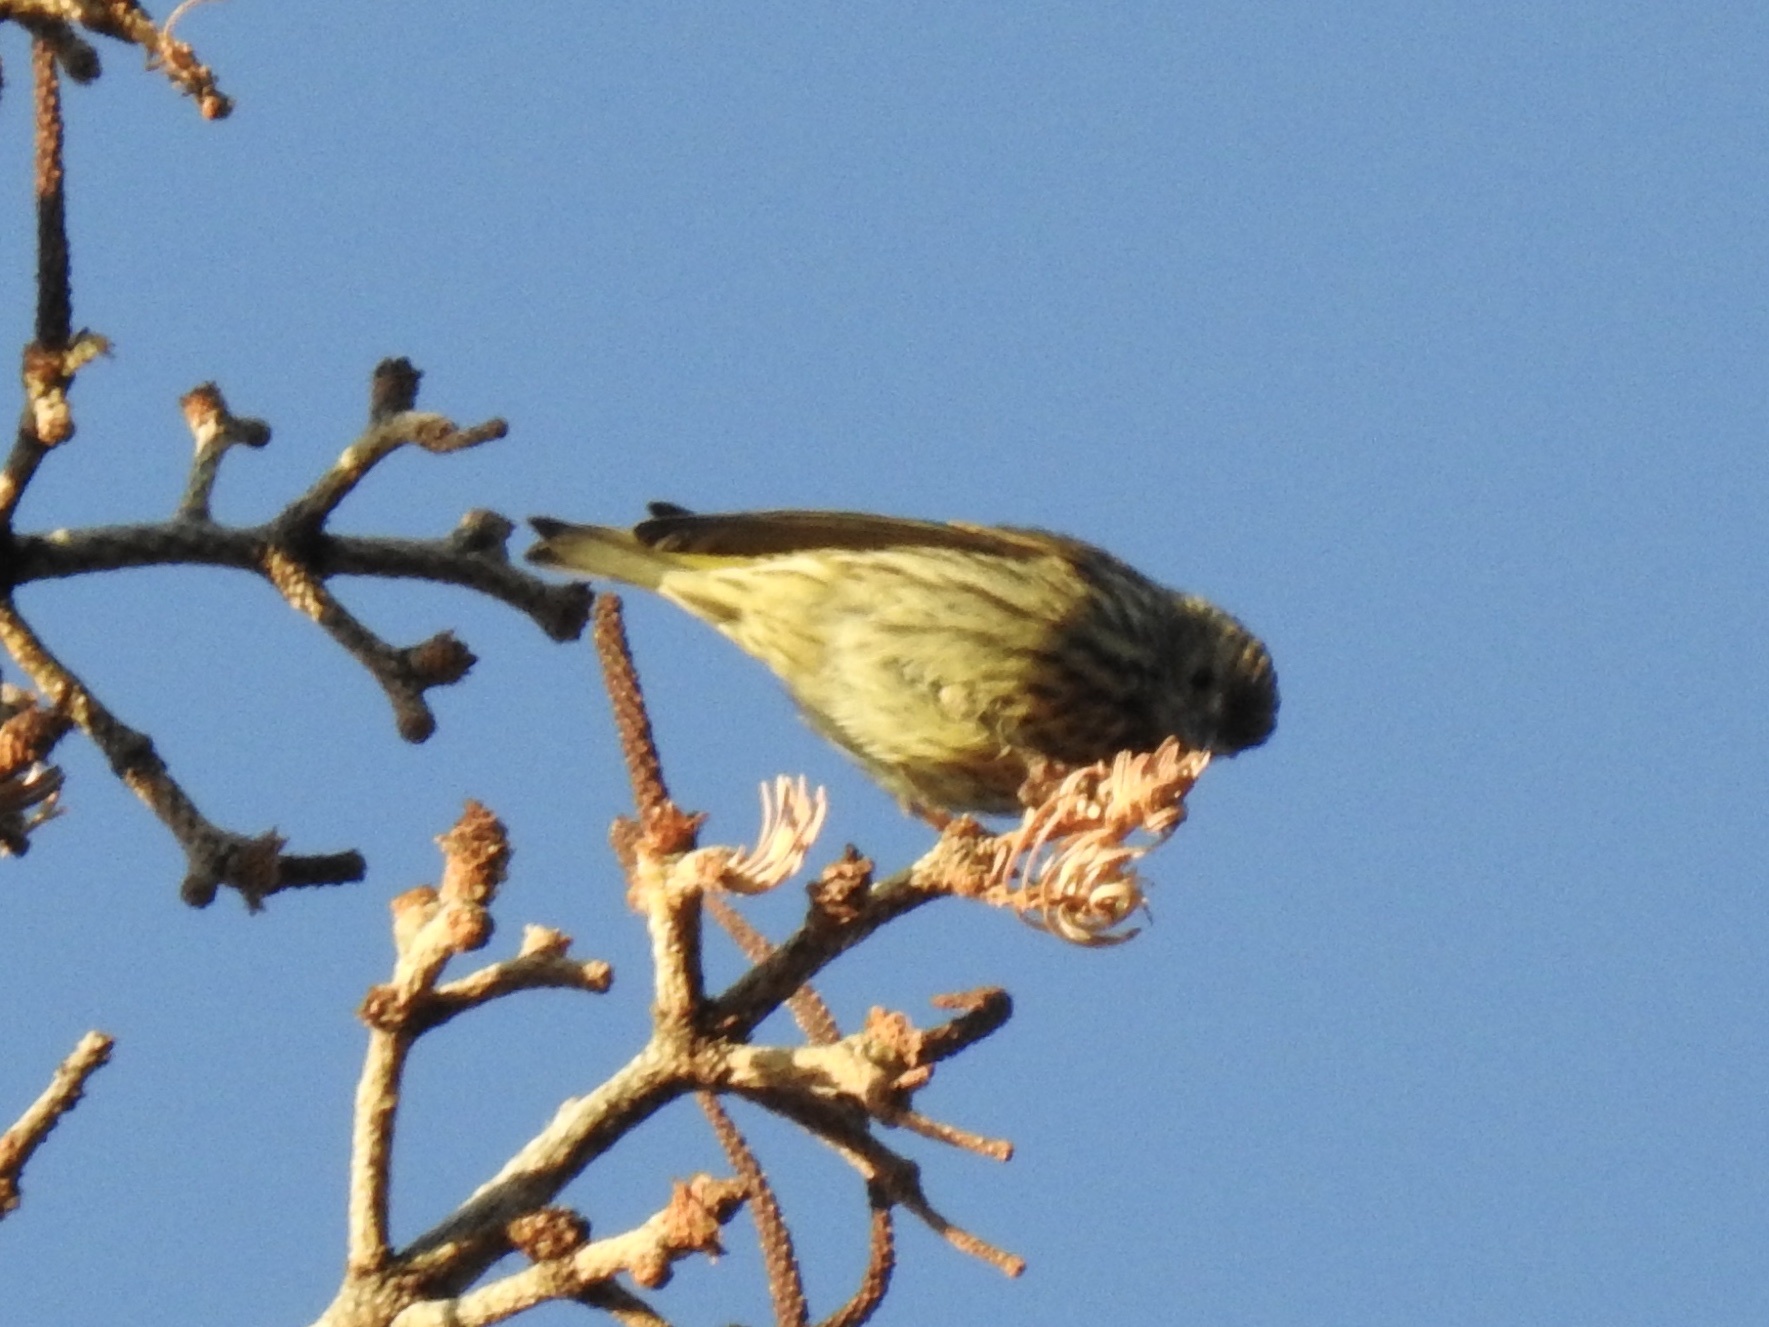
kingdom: Animalia
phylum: Chordata
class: Aves
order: Passeriformes
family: Fringillidae
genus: Spinus
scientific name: Spinus pinus
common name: Pine siskin
